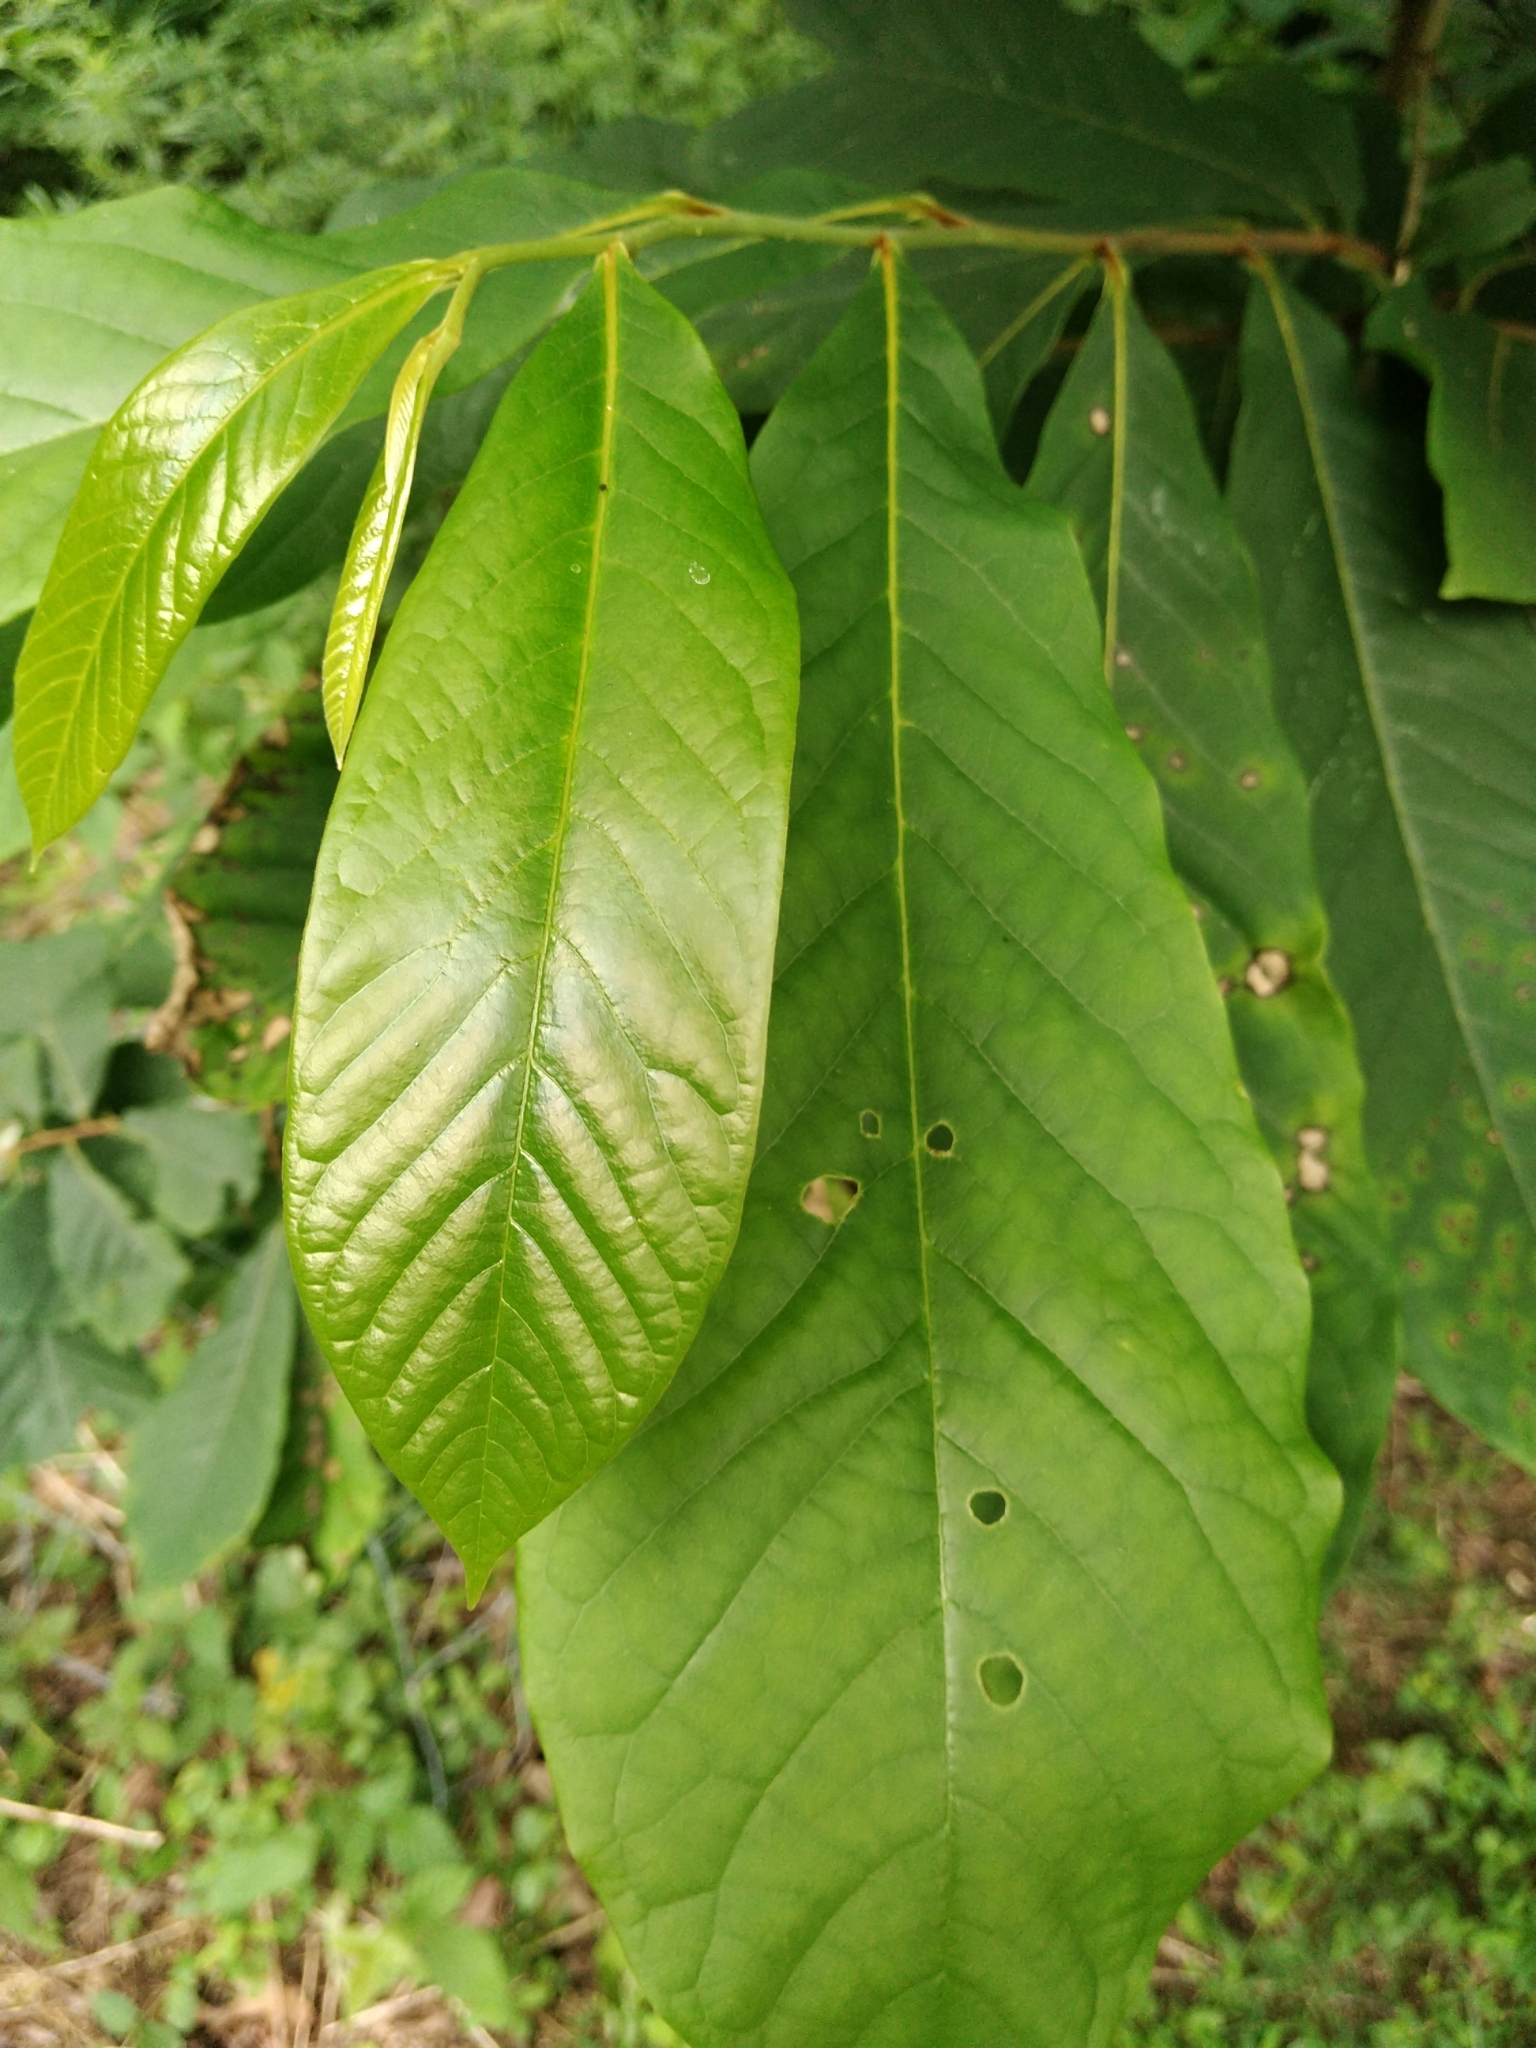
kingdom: Plantae
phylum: Tracheophyta
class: Magnoliopsida
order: Magnoliales
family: Annonaceae
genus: Asimina
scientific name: Asimina triloba
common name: Dog-banana
